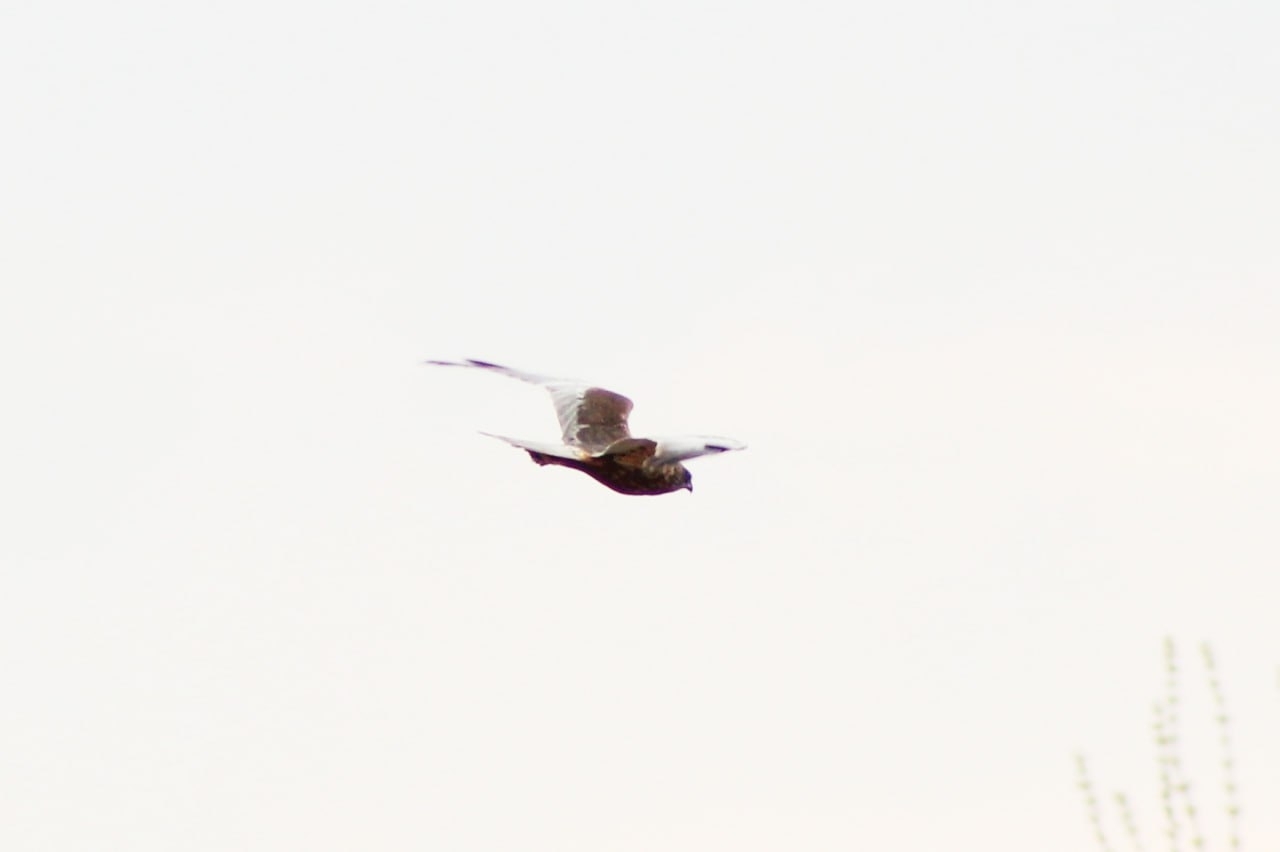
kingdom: Animalia
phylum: Chordata
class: Aves
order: Accipitriformes
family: Accipitridae
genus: Circus
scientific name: Circus aeruginosus
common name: Western marsh harrier
